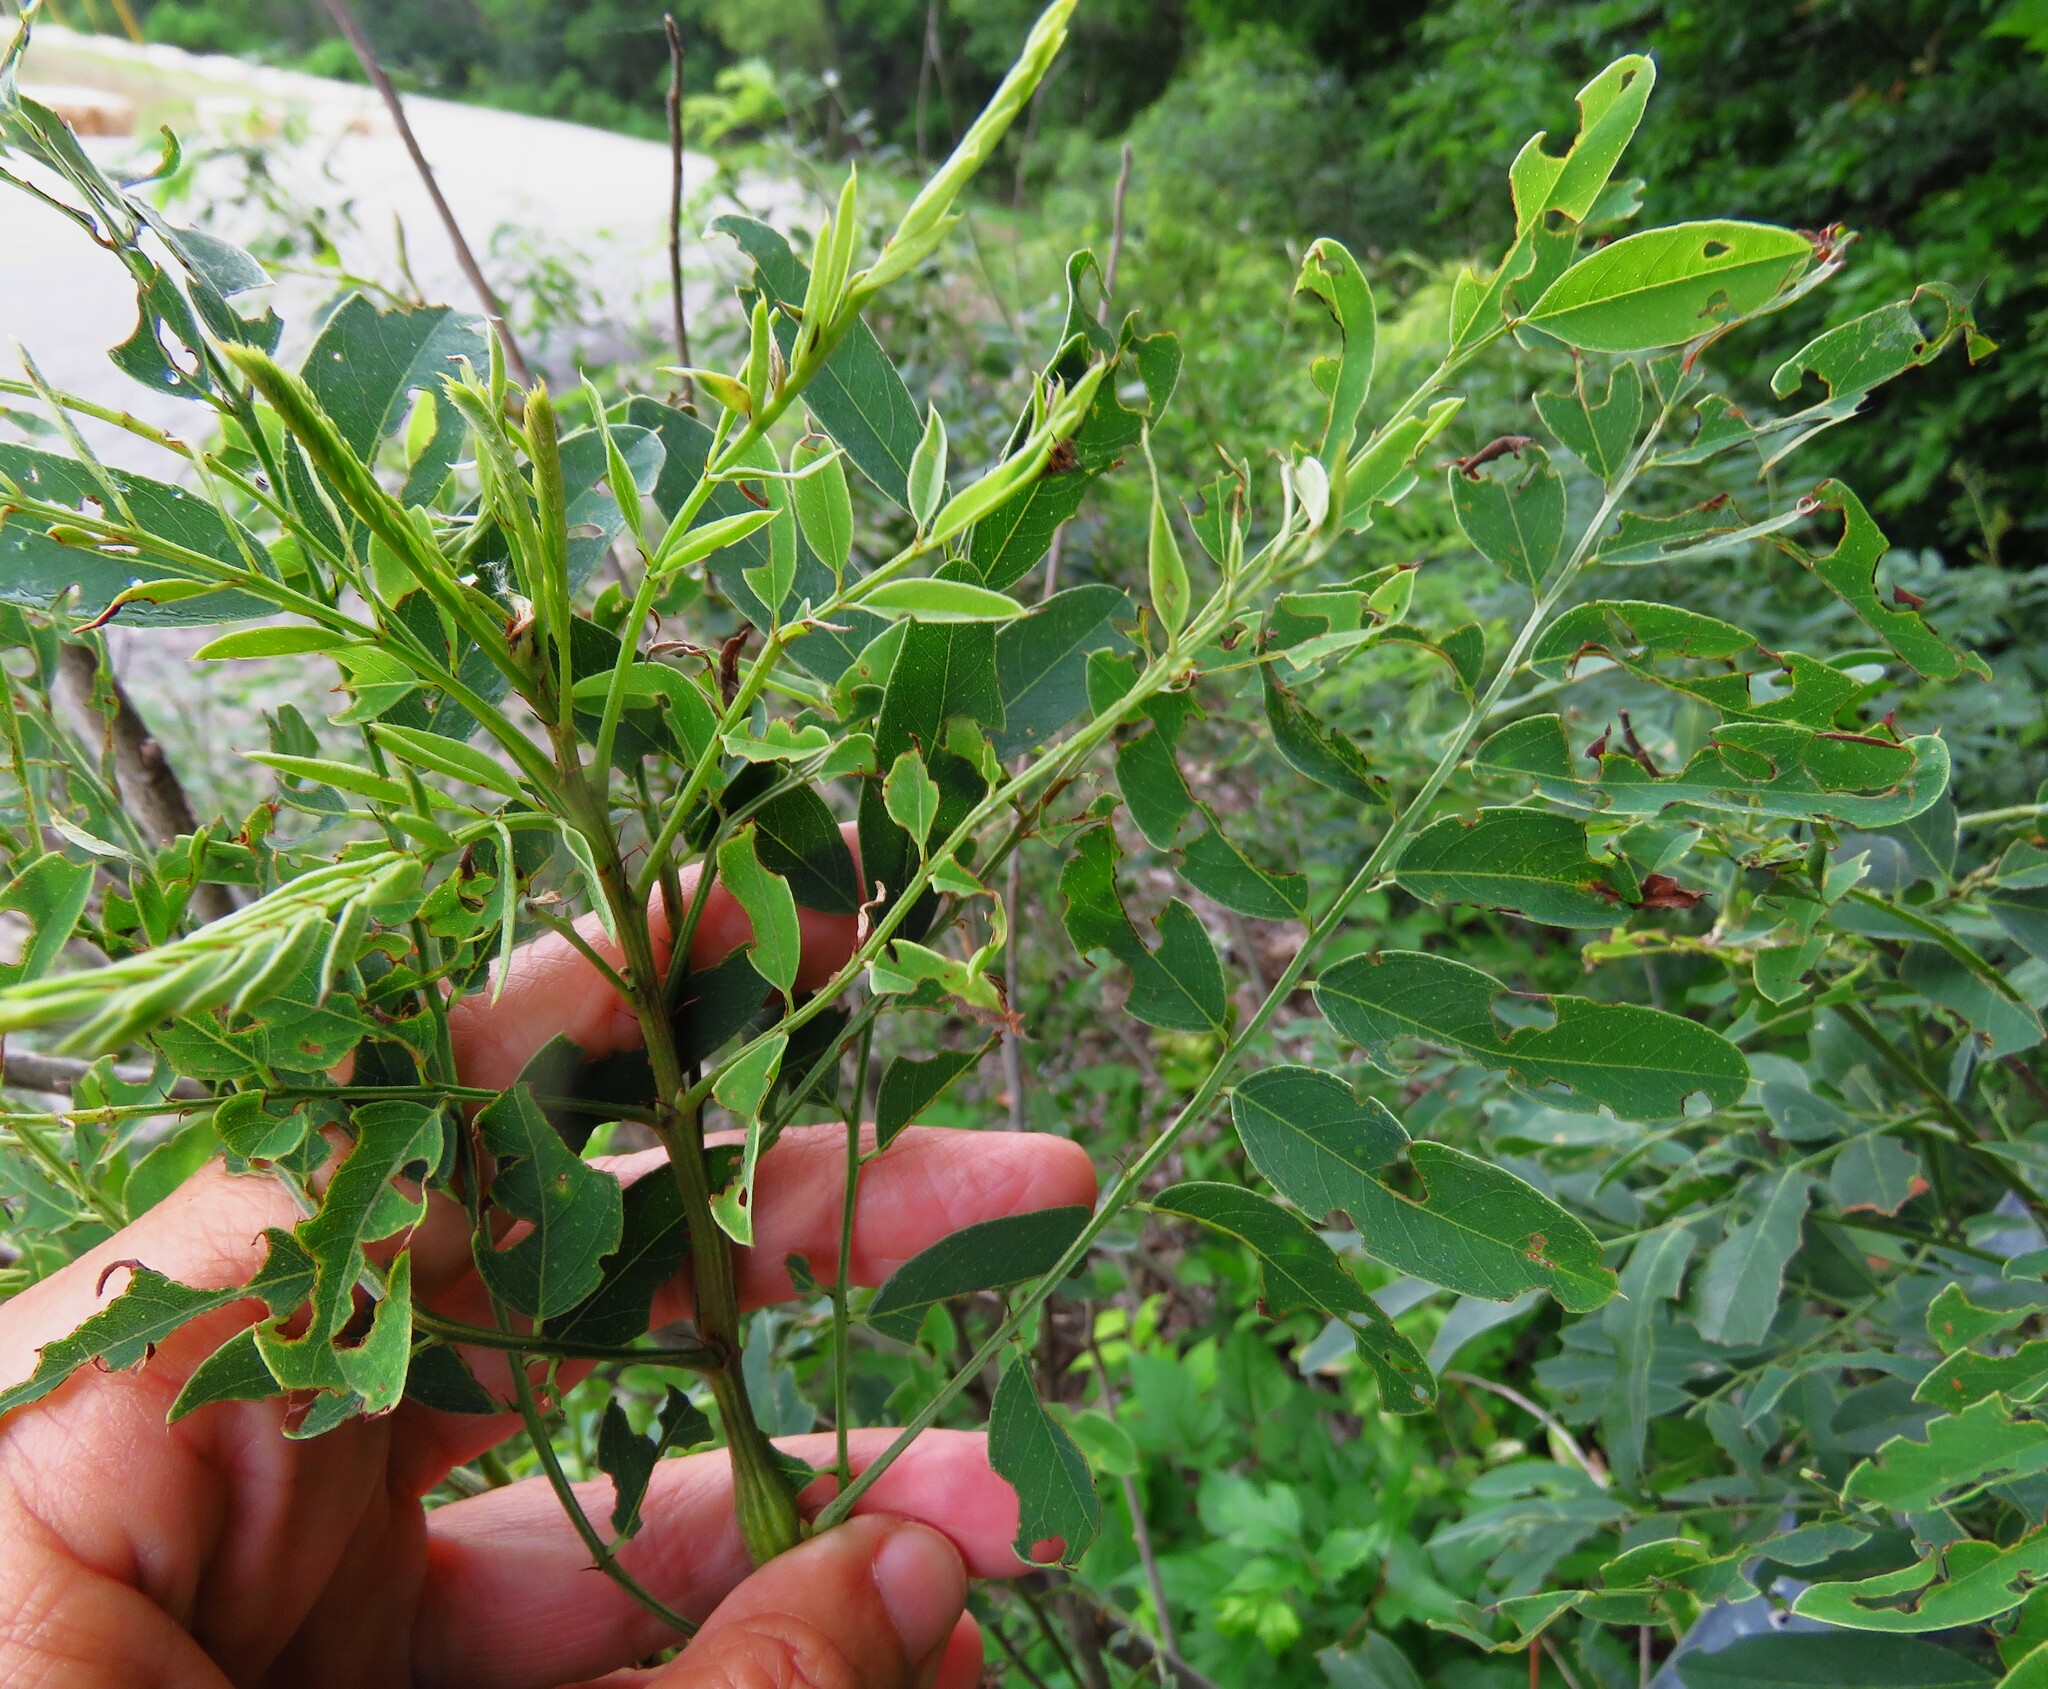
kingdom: Plantae
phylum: Tracheophyta
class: Magnoliopsida
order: Fabales
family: Fabaceae
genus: Amorpha
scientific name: Amorpha fruticosa
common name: False indigo
